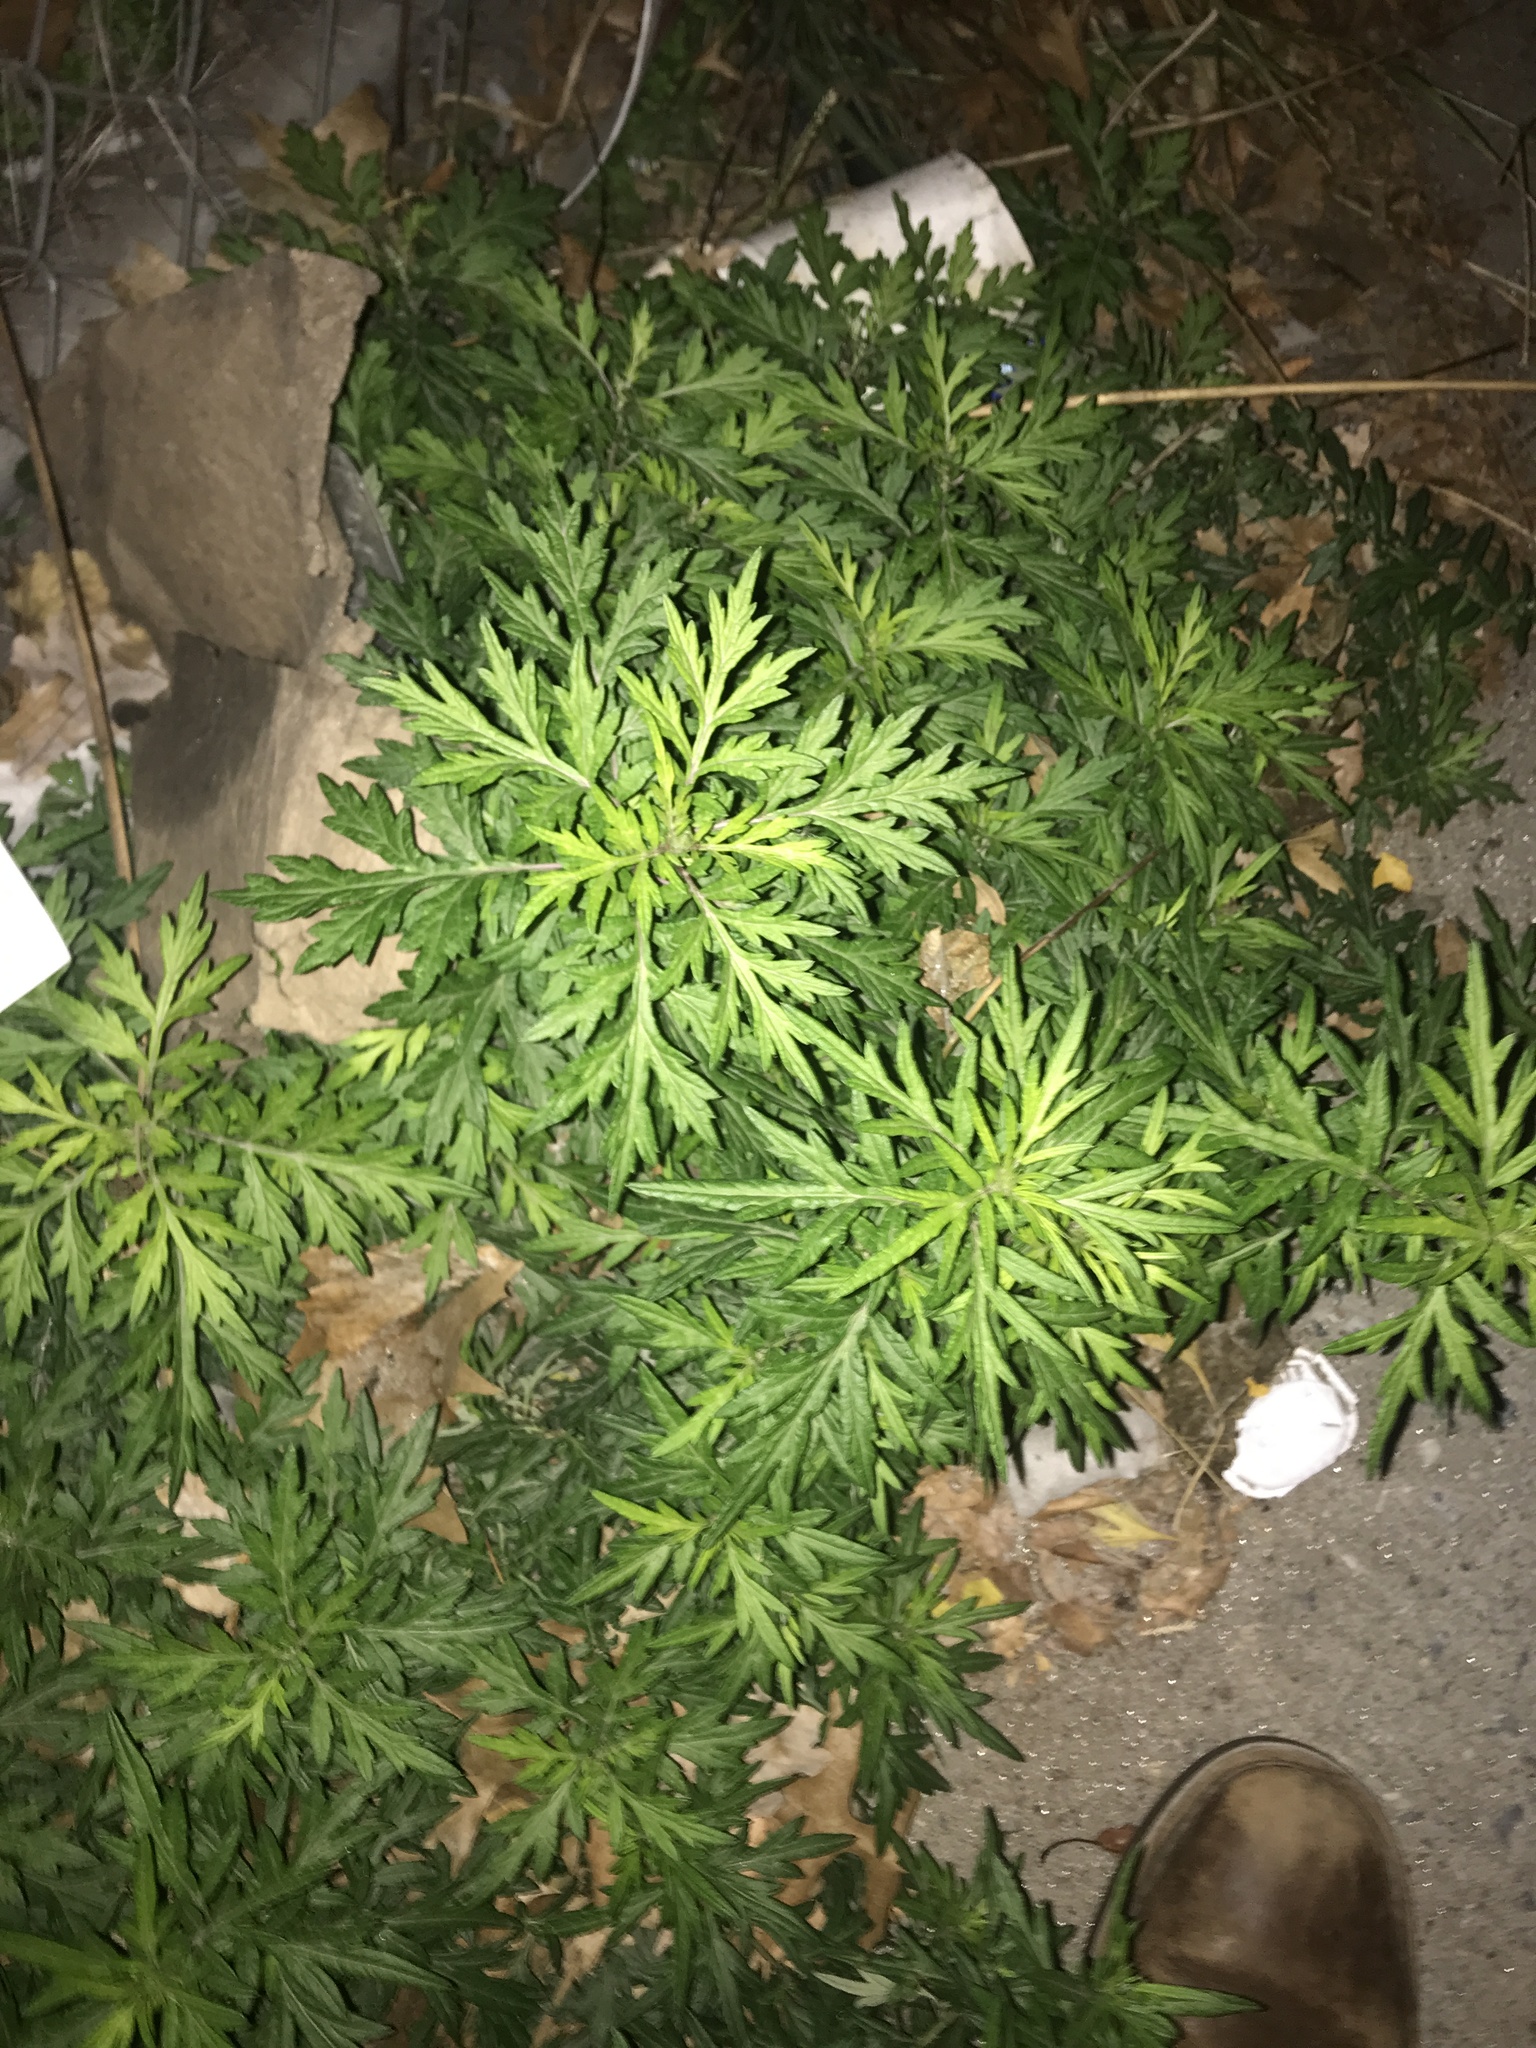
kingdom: Plantae
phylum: Tracheophyta
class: Magnoliopsida
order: Asterales
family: Asteraceae
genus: Artemisia
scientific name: Artemisia vulgaris
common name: Mugwort
